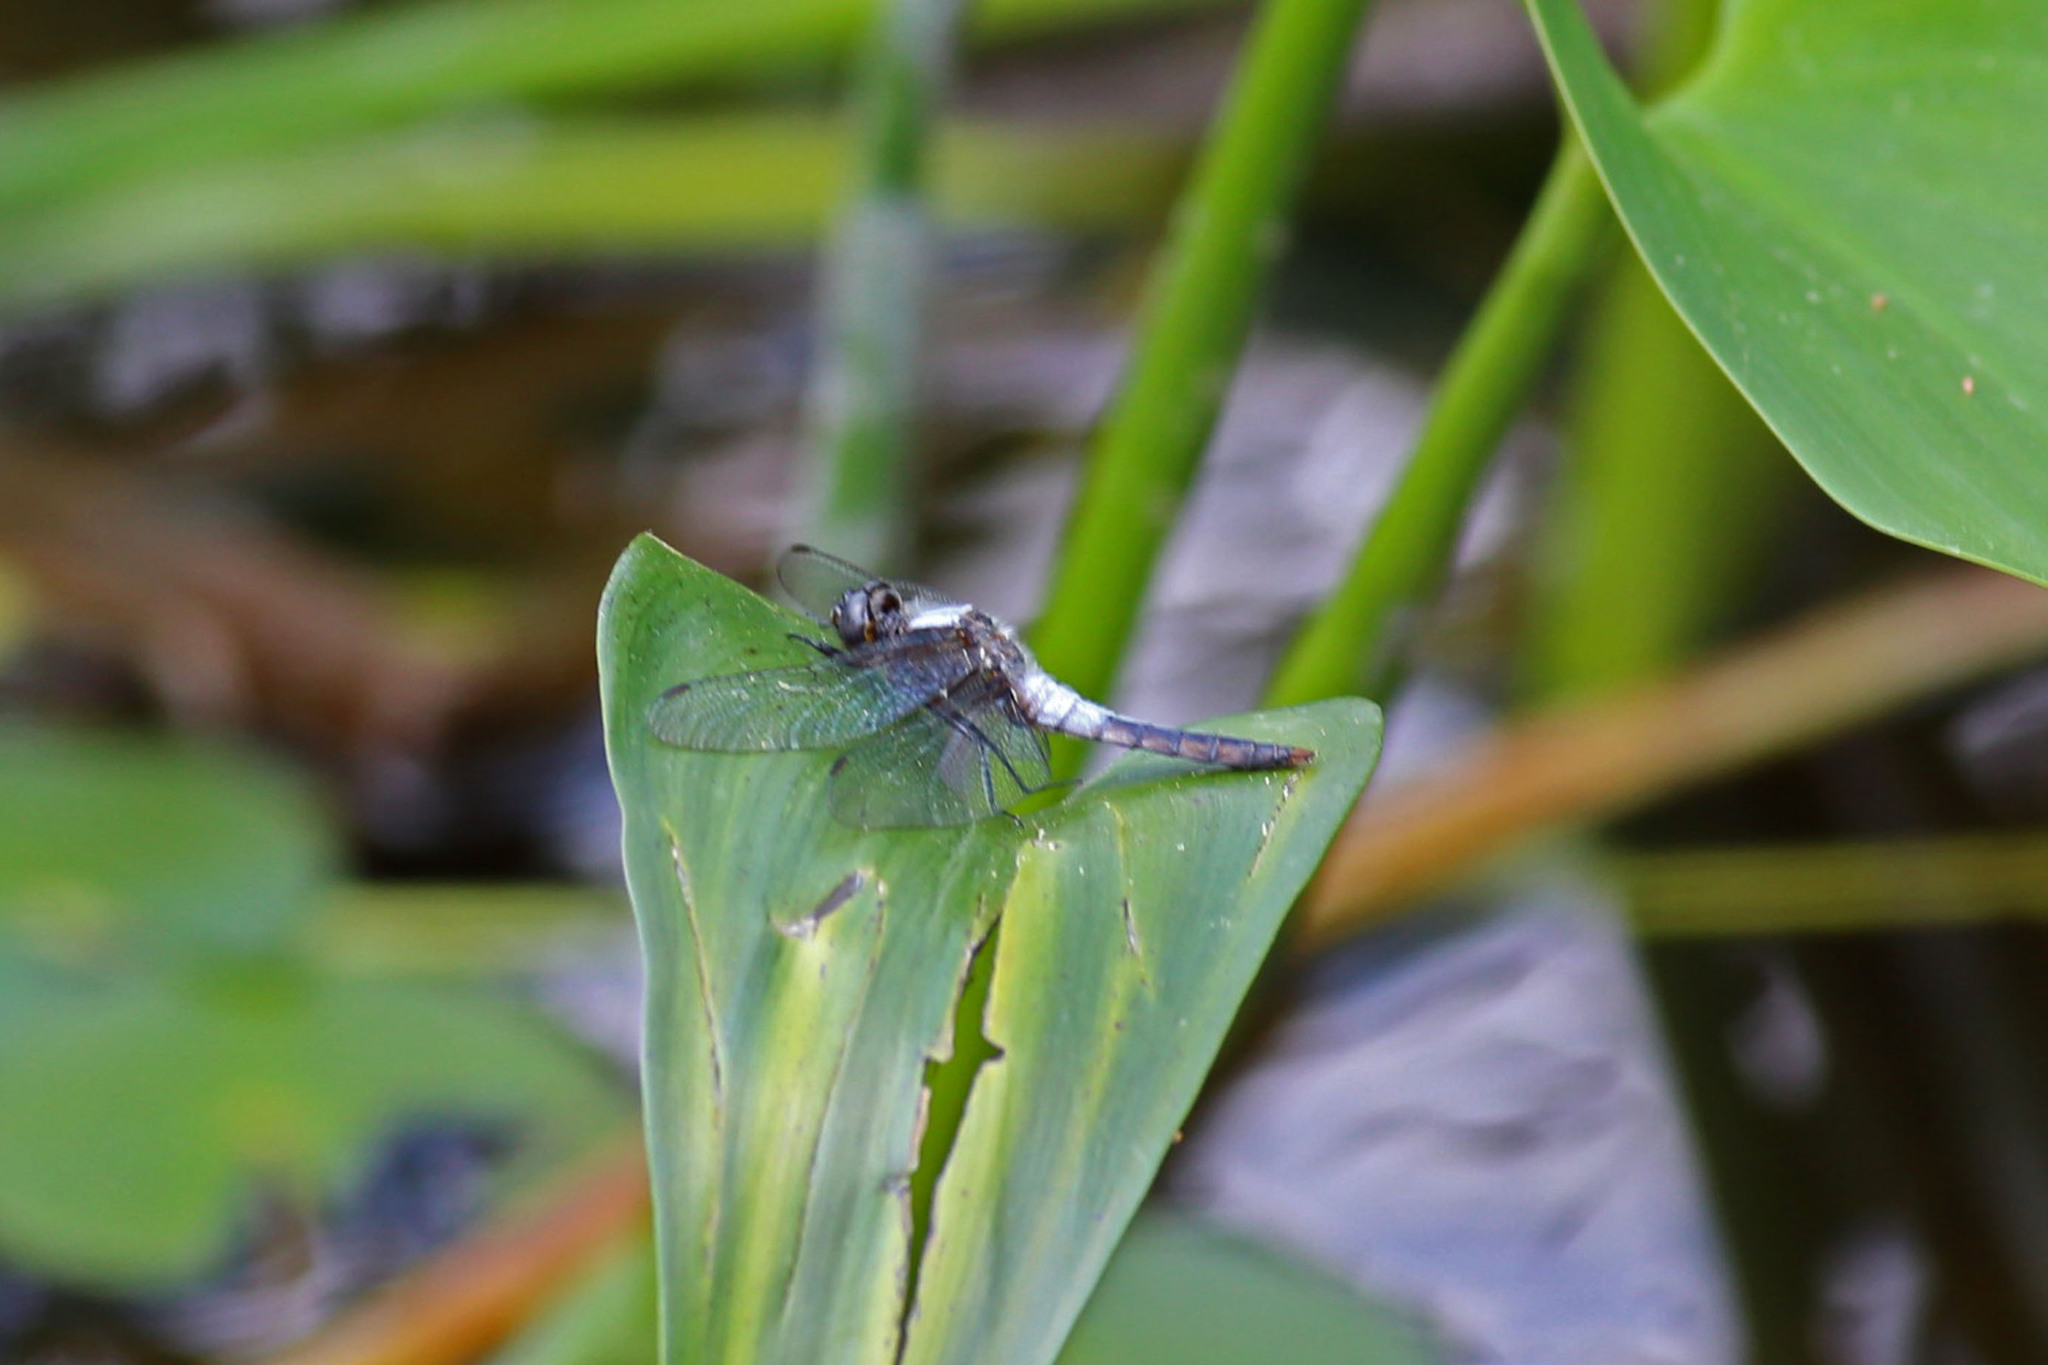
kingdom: Animalia
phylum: Arthropoda
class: Insecta
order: Odonata
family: Libellulidae
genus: Ladona
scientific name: Ladona julia
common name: Chalk-fronted corporal
